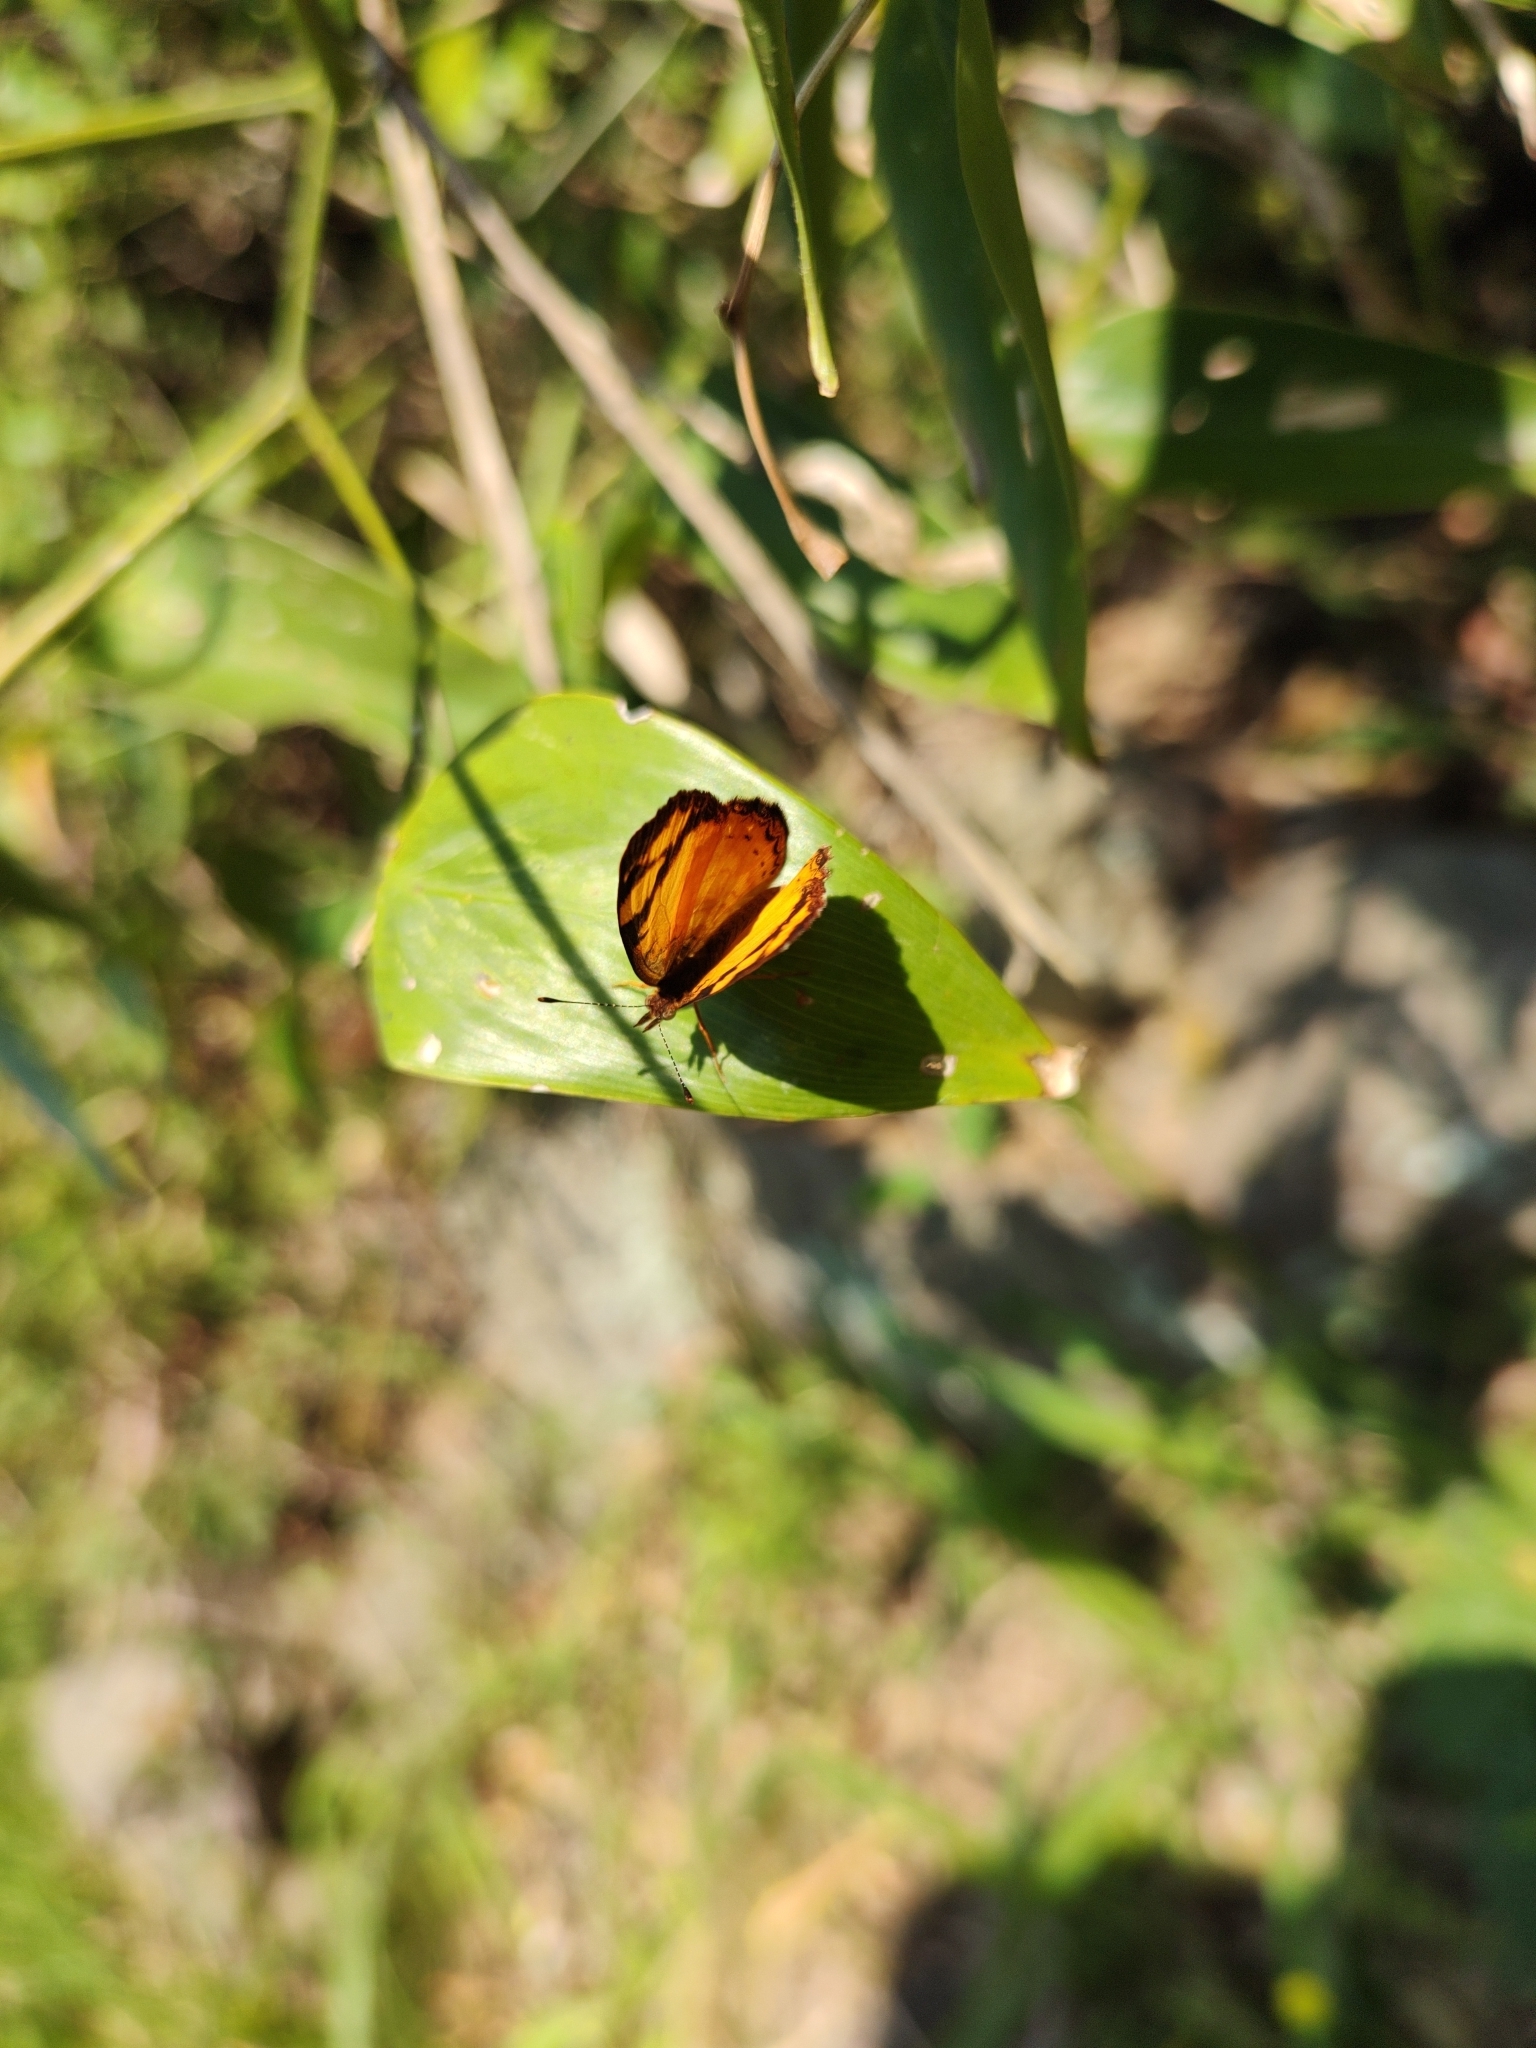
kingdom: Animalia
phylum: Arthropoda
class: Insecta
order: Lepidoptera
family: Nymphalidae
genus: Tegosa
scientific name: Tegosa claudina
